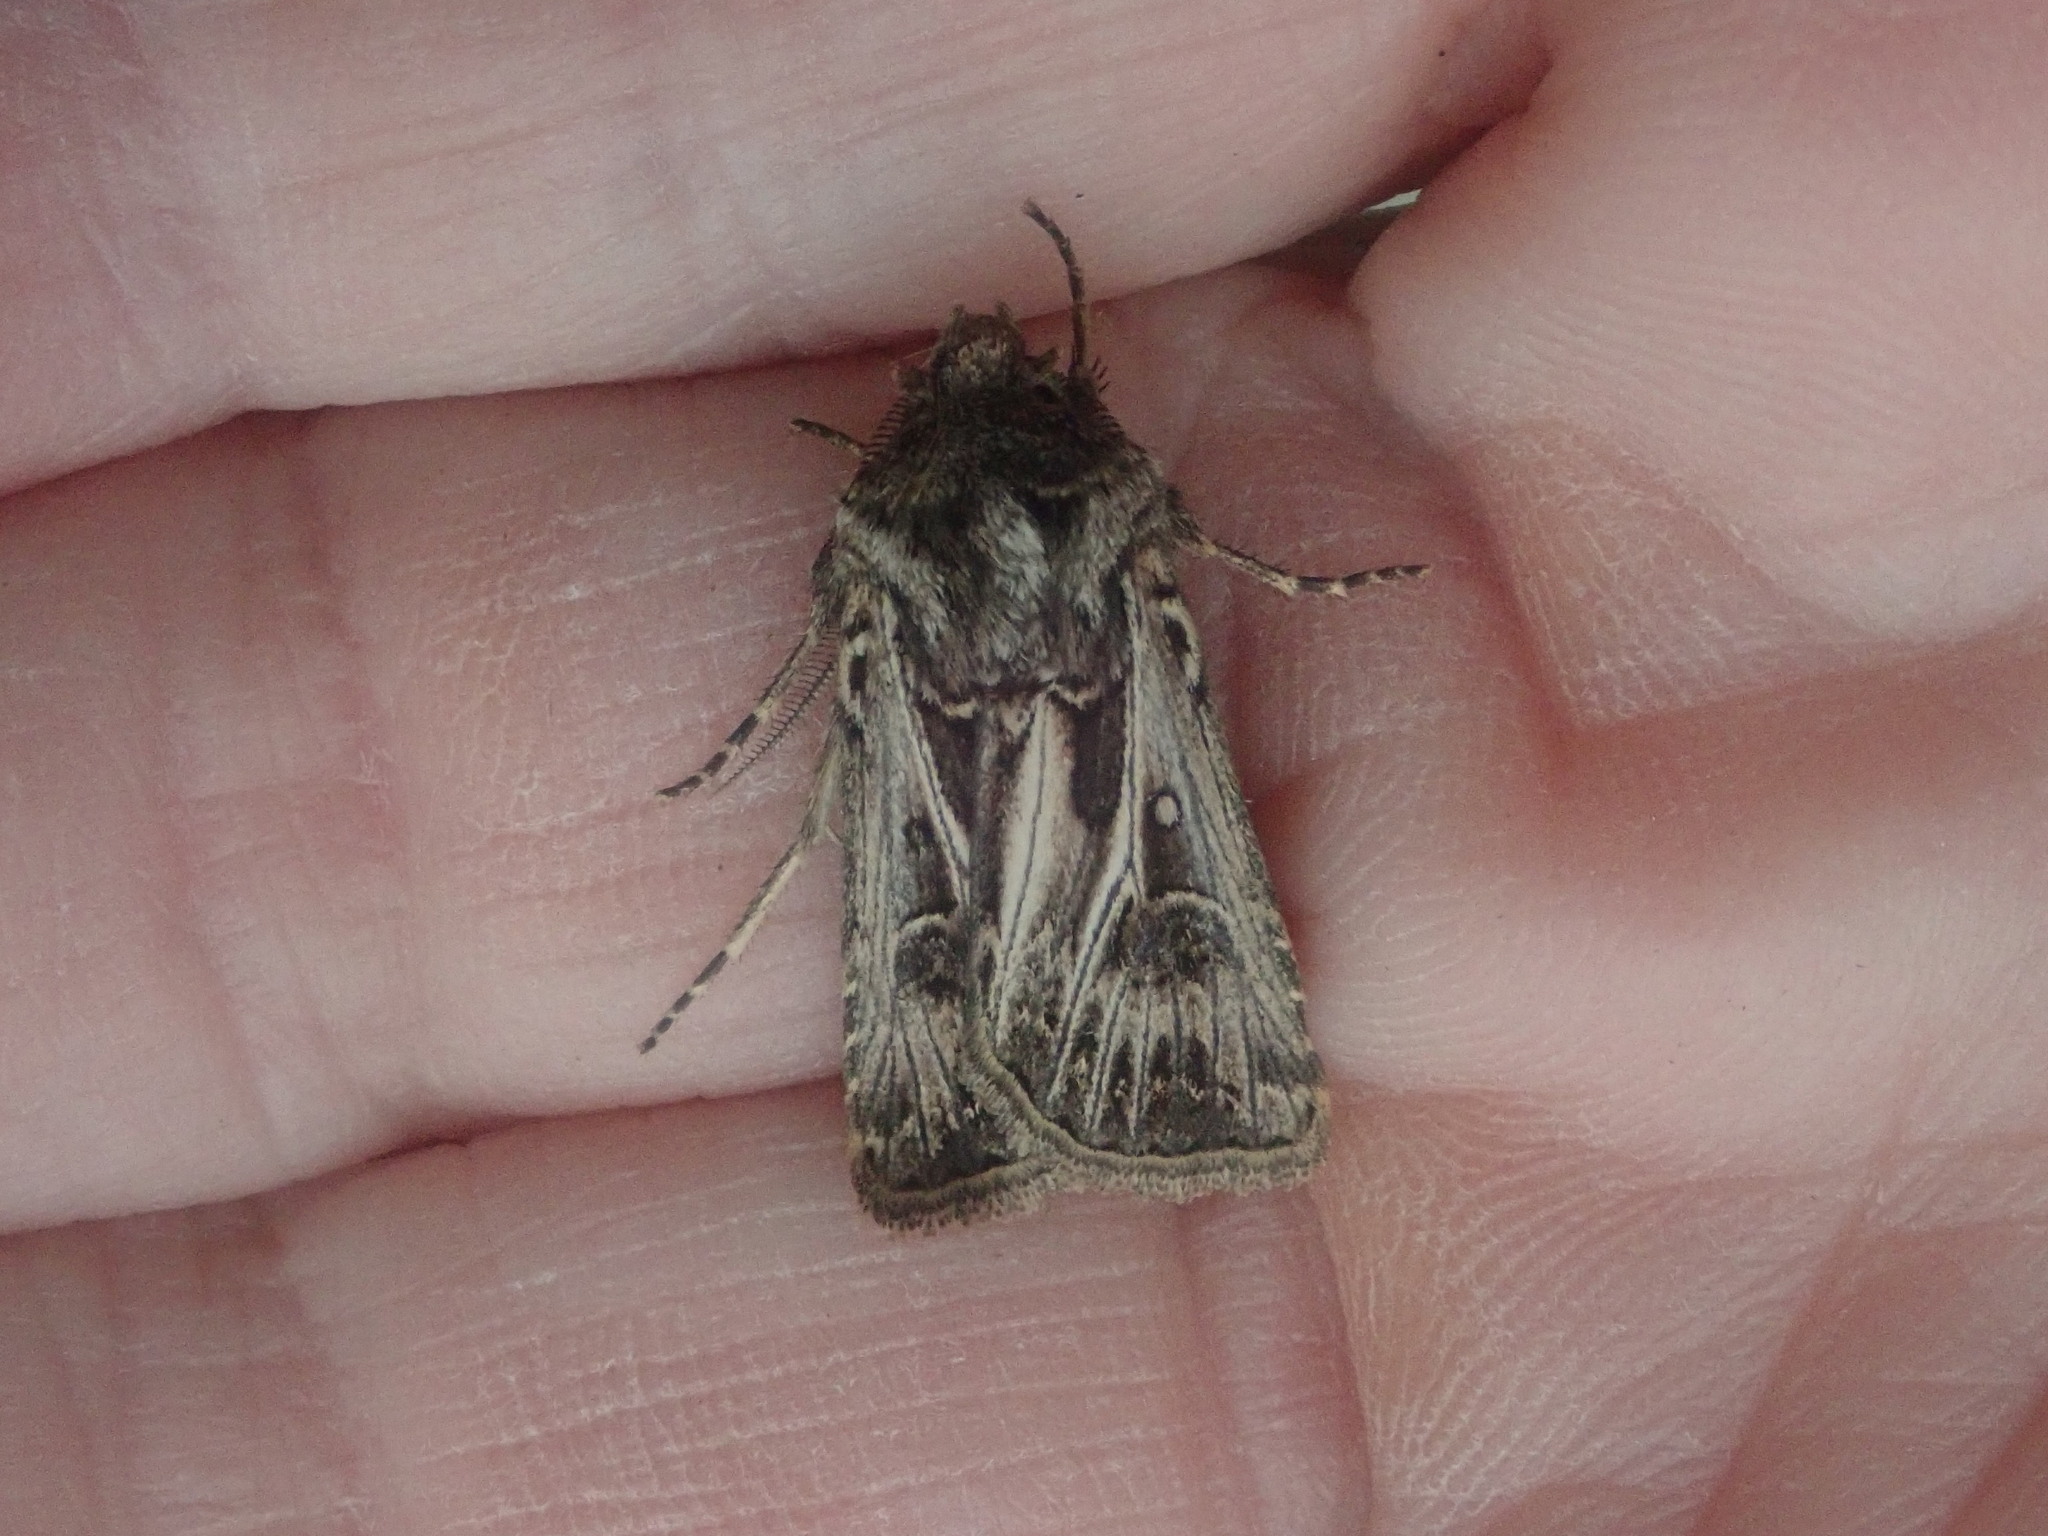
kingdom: Animalia
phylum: Arthropoda
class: Insecta
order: Lepidoptera
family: Noctuidae
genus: Agrotis
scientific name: Agrotis gladiaria
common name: Claybacked cutworm
